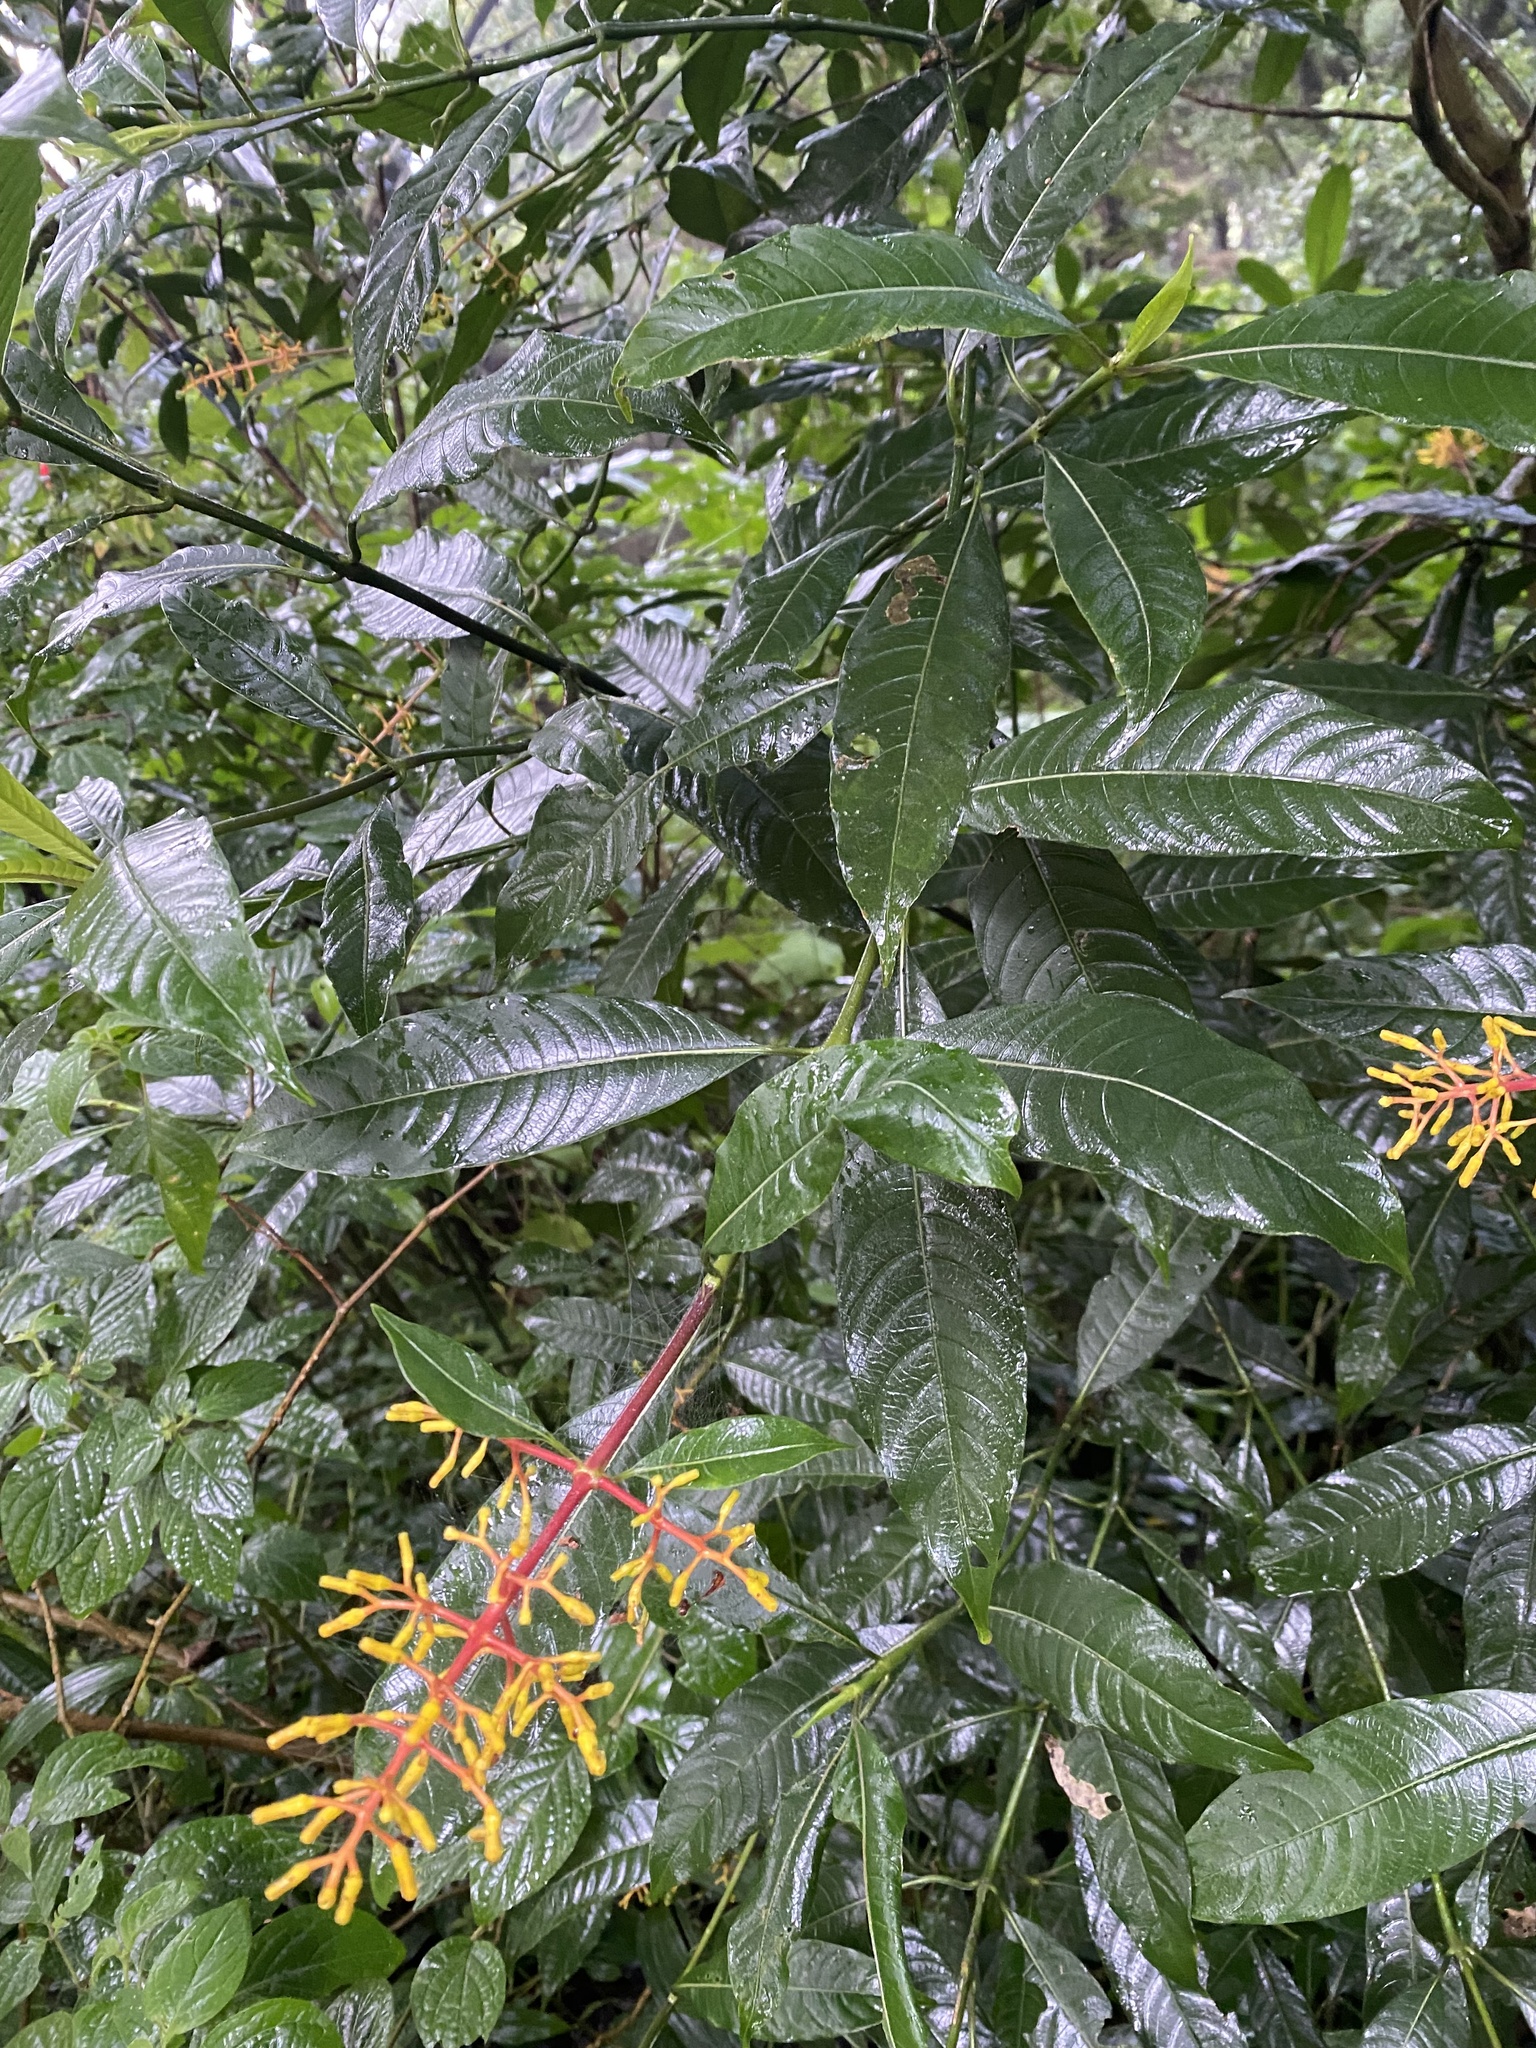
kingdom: Plantae
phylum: Tracheophyta
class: Magnoliopsida
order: Gentianales
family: Rubiaceae
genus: Palicourea
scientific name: Palicourea padifolia
